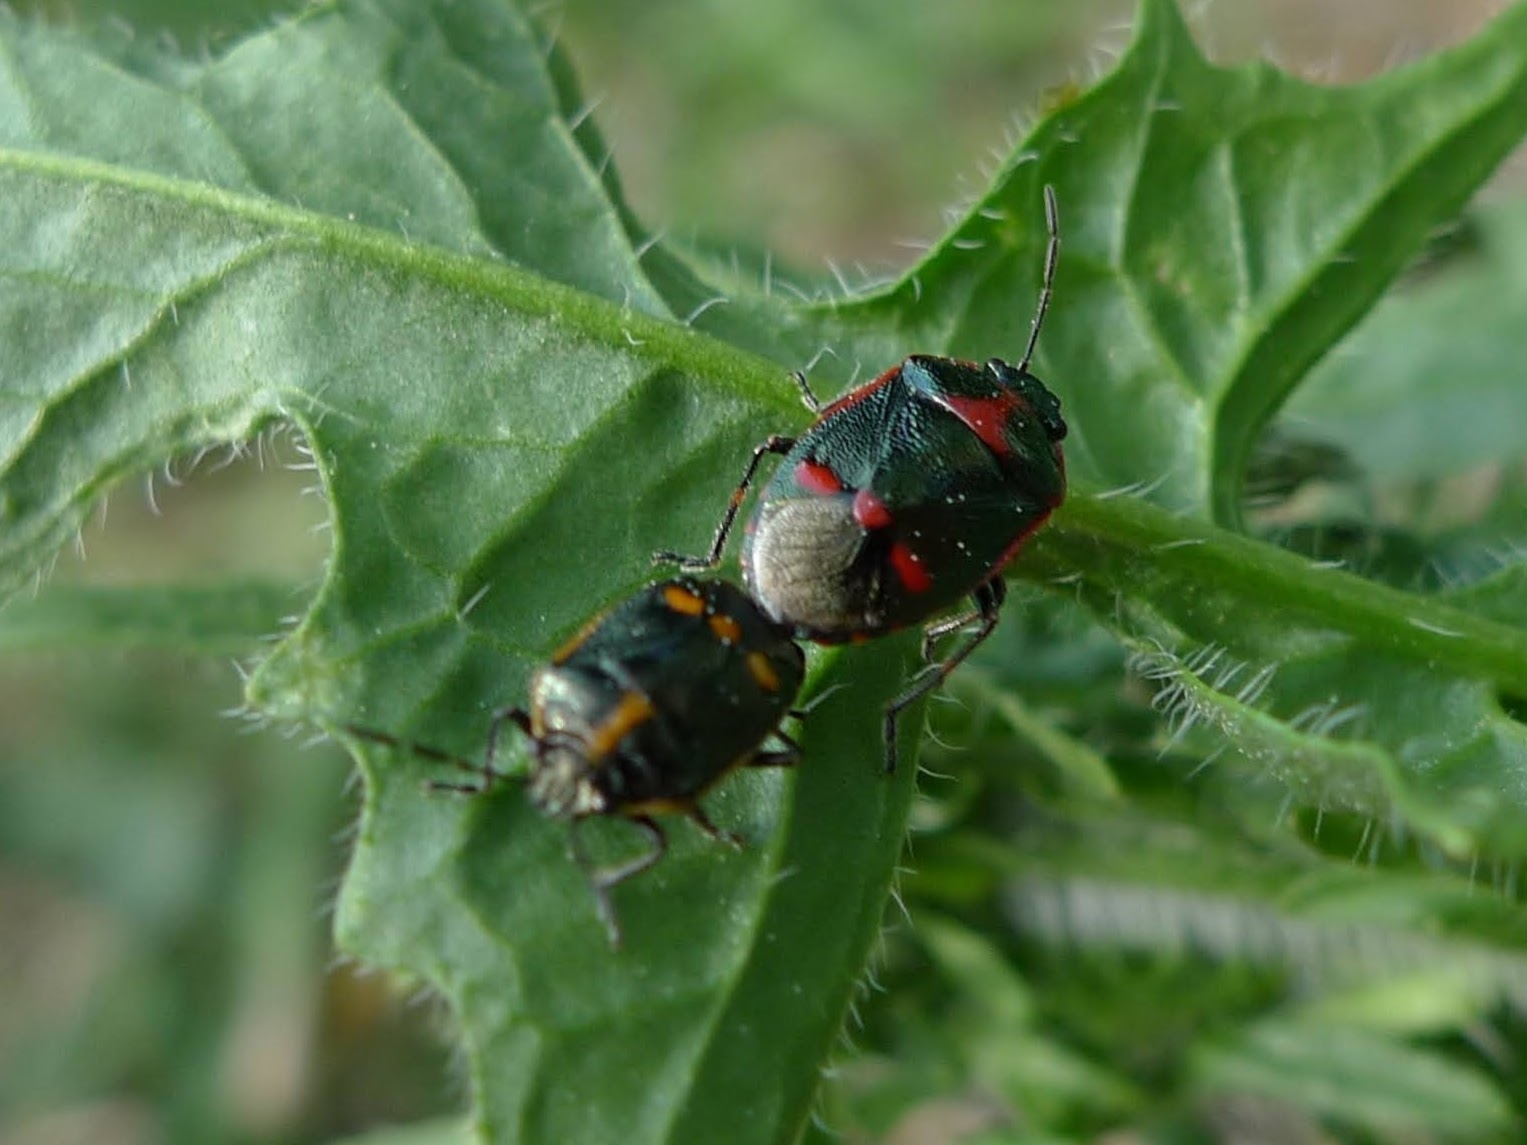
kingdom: Animalia
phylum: Arthropoda
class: Insecta
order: Hemiptera
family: Pentatomidae
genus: Eurydema
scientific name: Eurydema oleracea
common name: Cabbage bug
